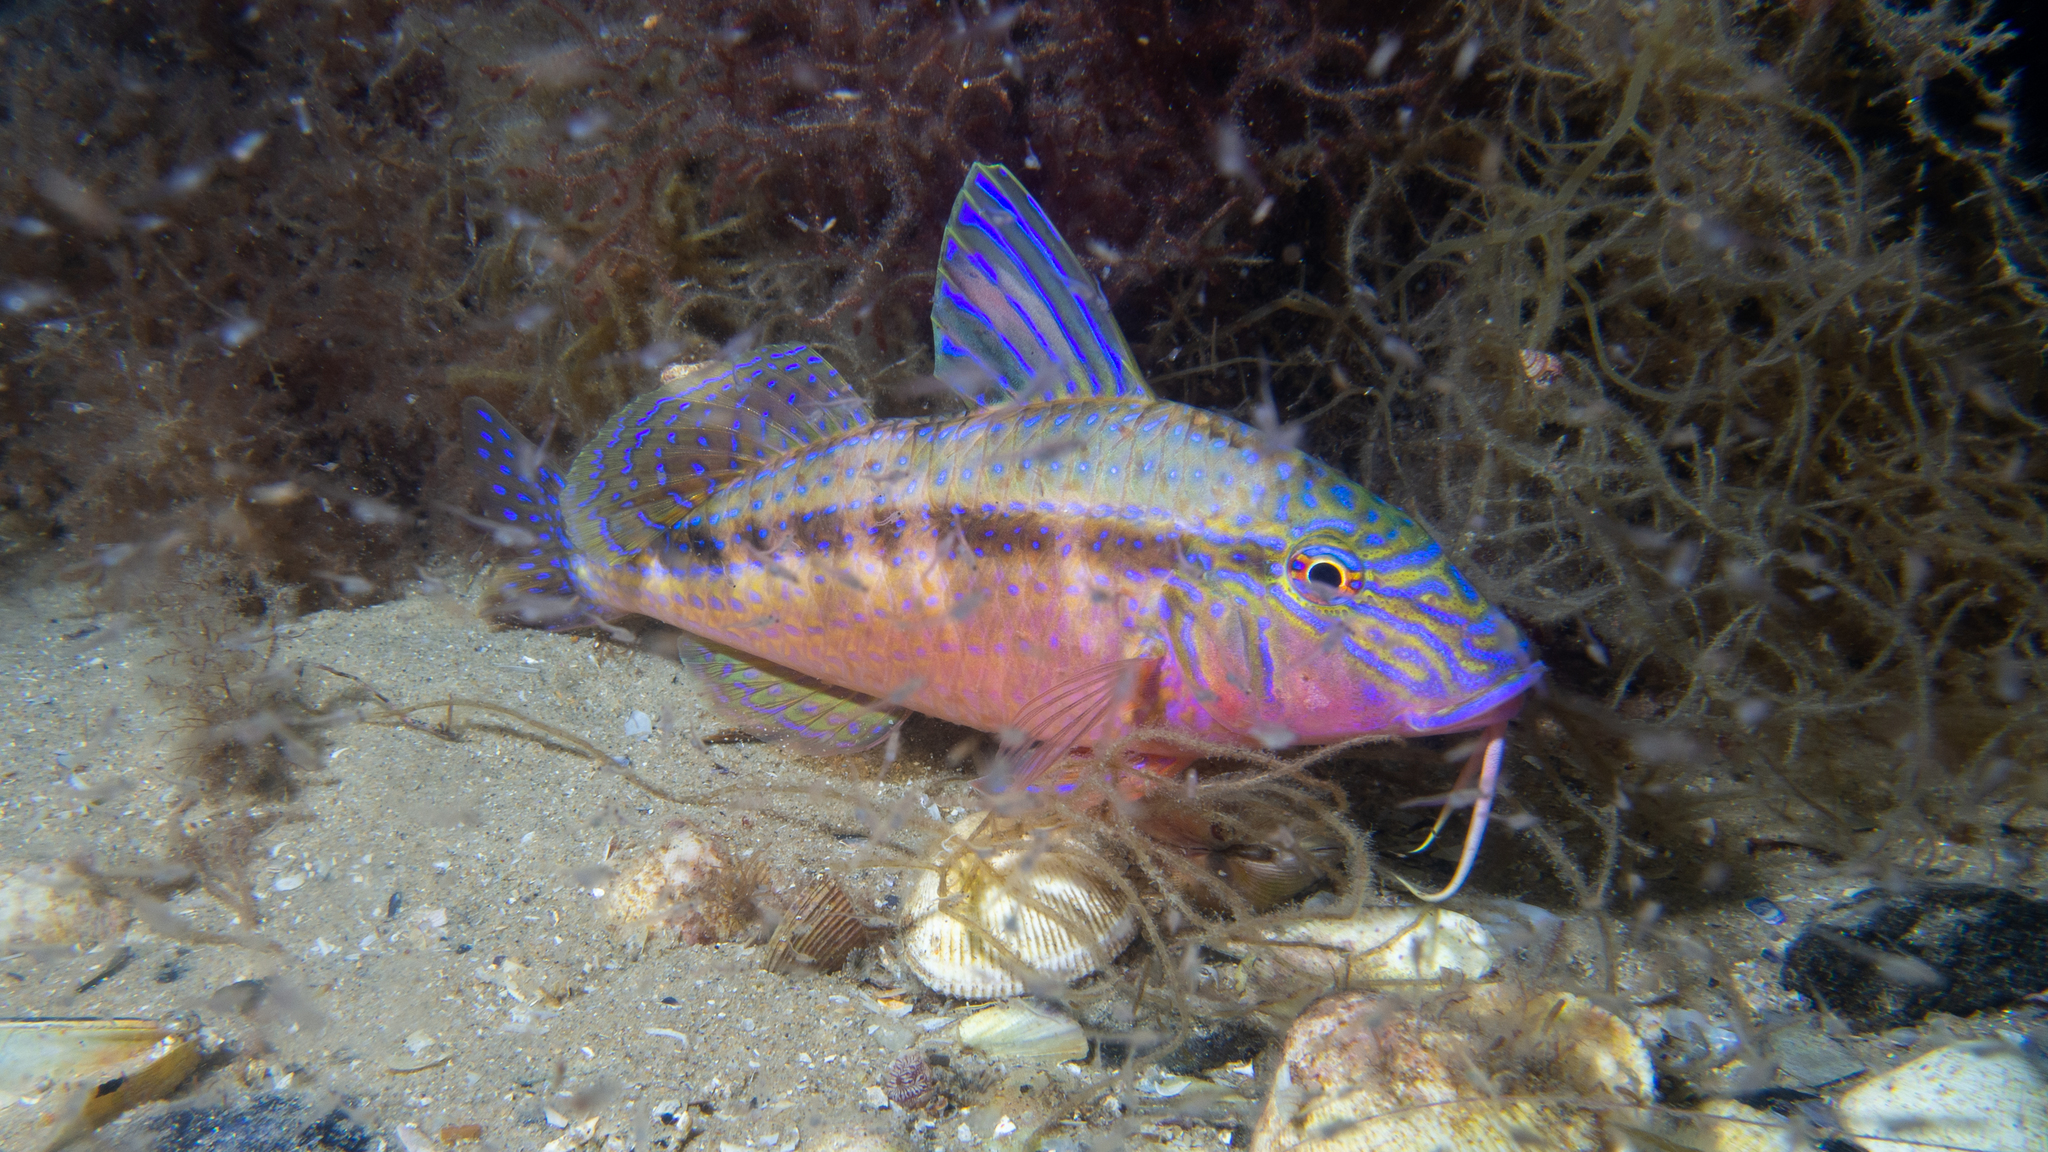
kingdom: Animalia
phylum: Chordata
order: Perciformes
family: Mullidae
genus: Upeneichthys
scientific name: Upeneichthys vlamingii
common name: Red mullet
